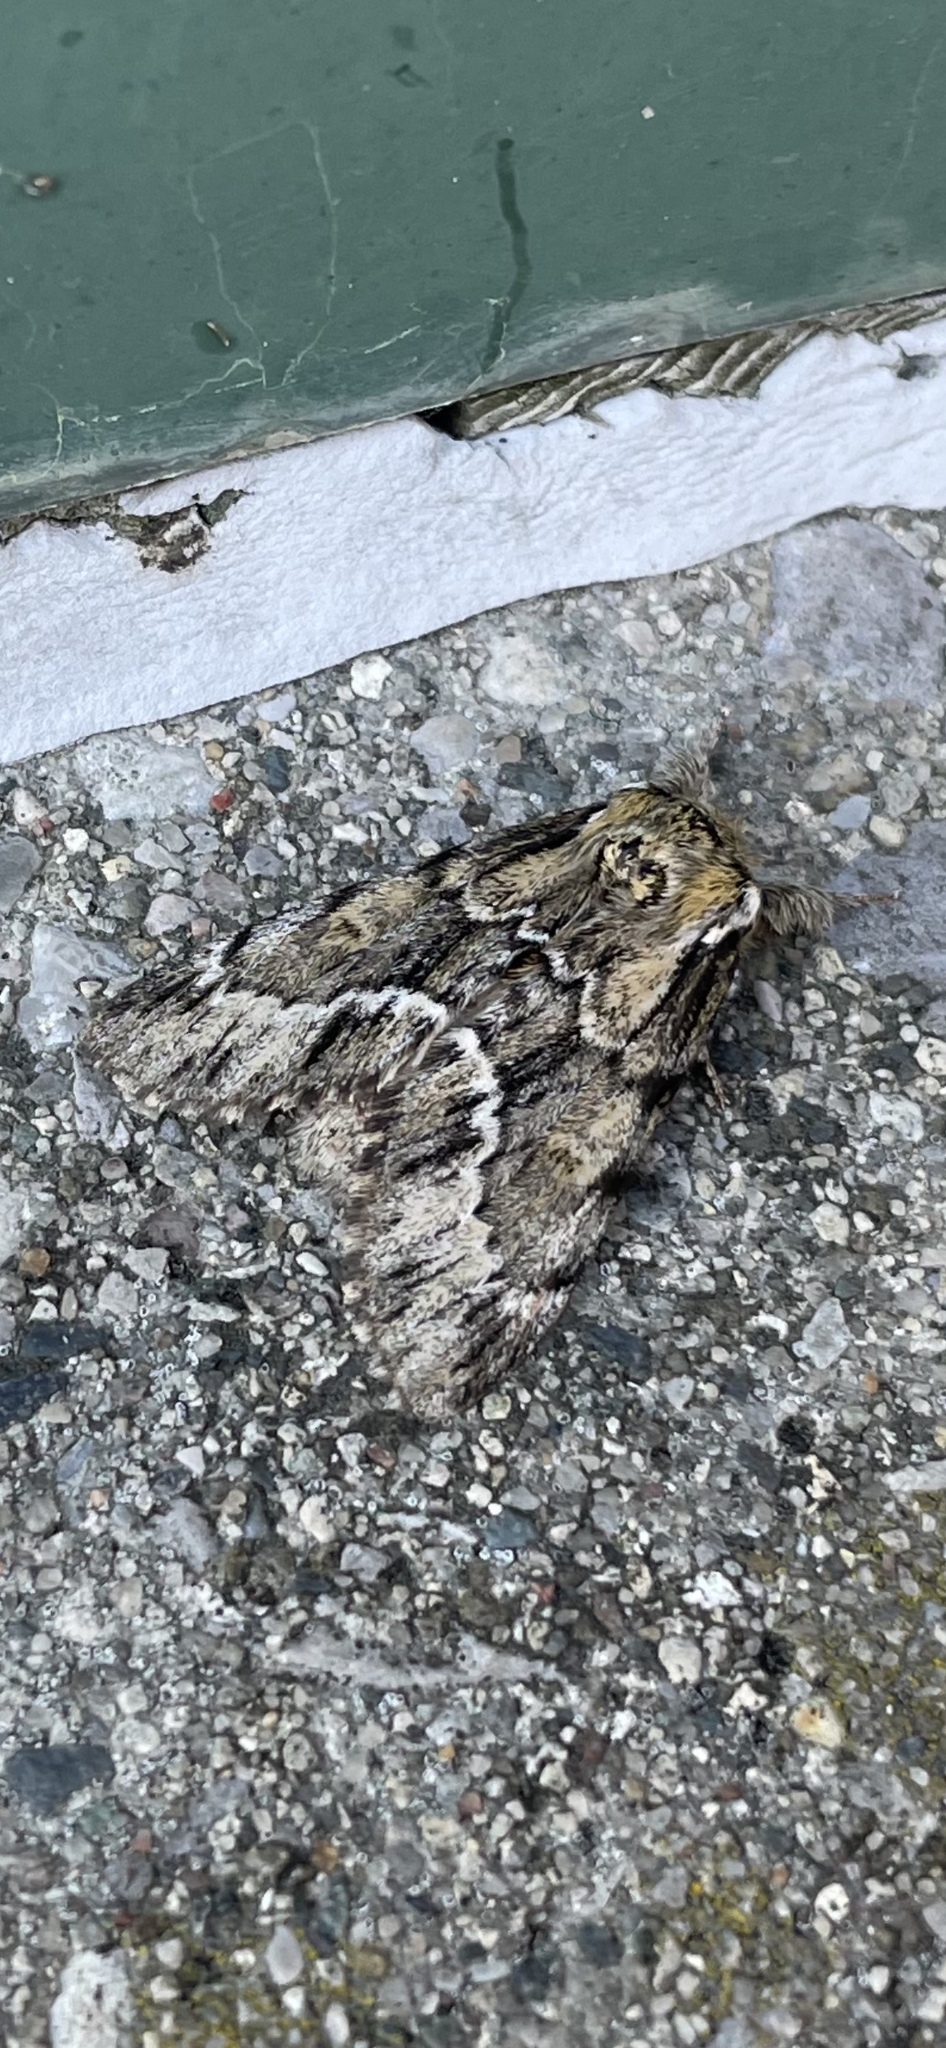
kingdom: Animalia
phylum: Arthropoda
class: Insecta
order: Lepidoptera
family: Notodontidae
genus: Paraeschra
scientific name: Paraeschra georgica
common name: Georgian prominent
